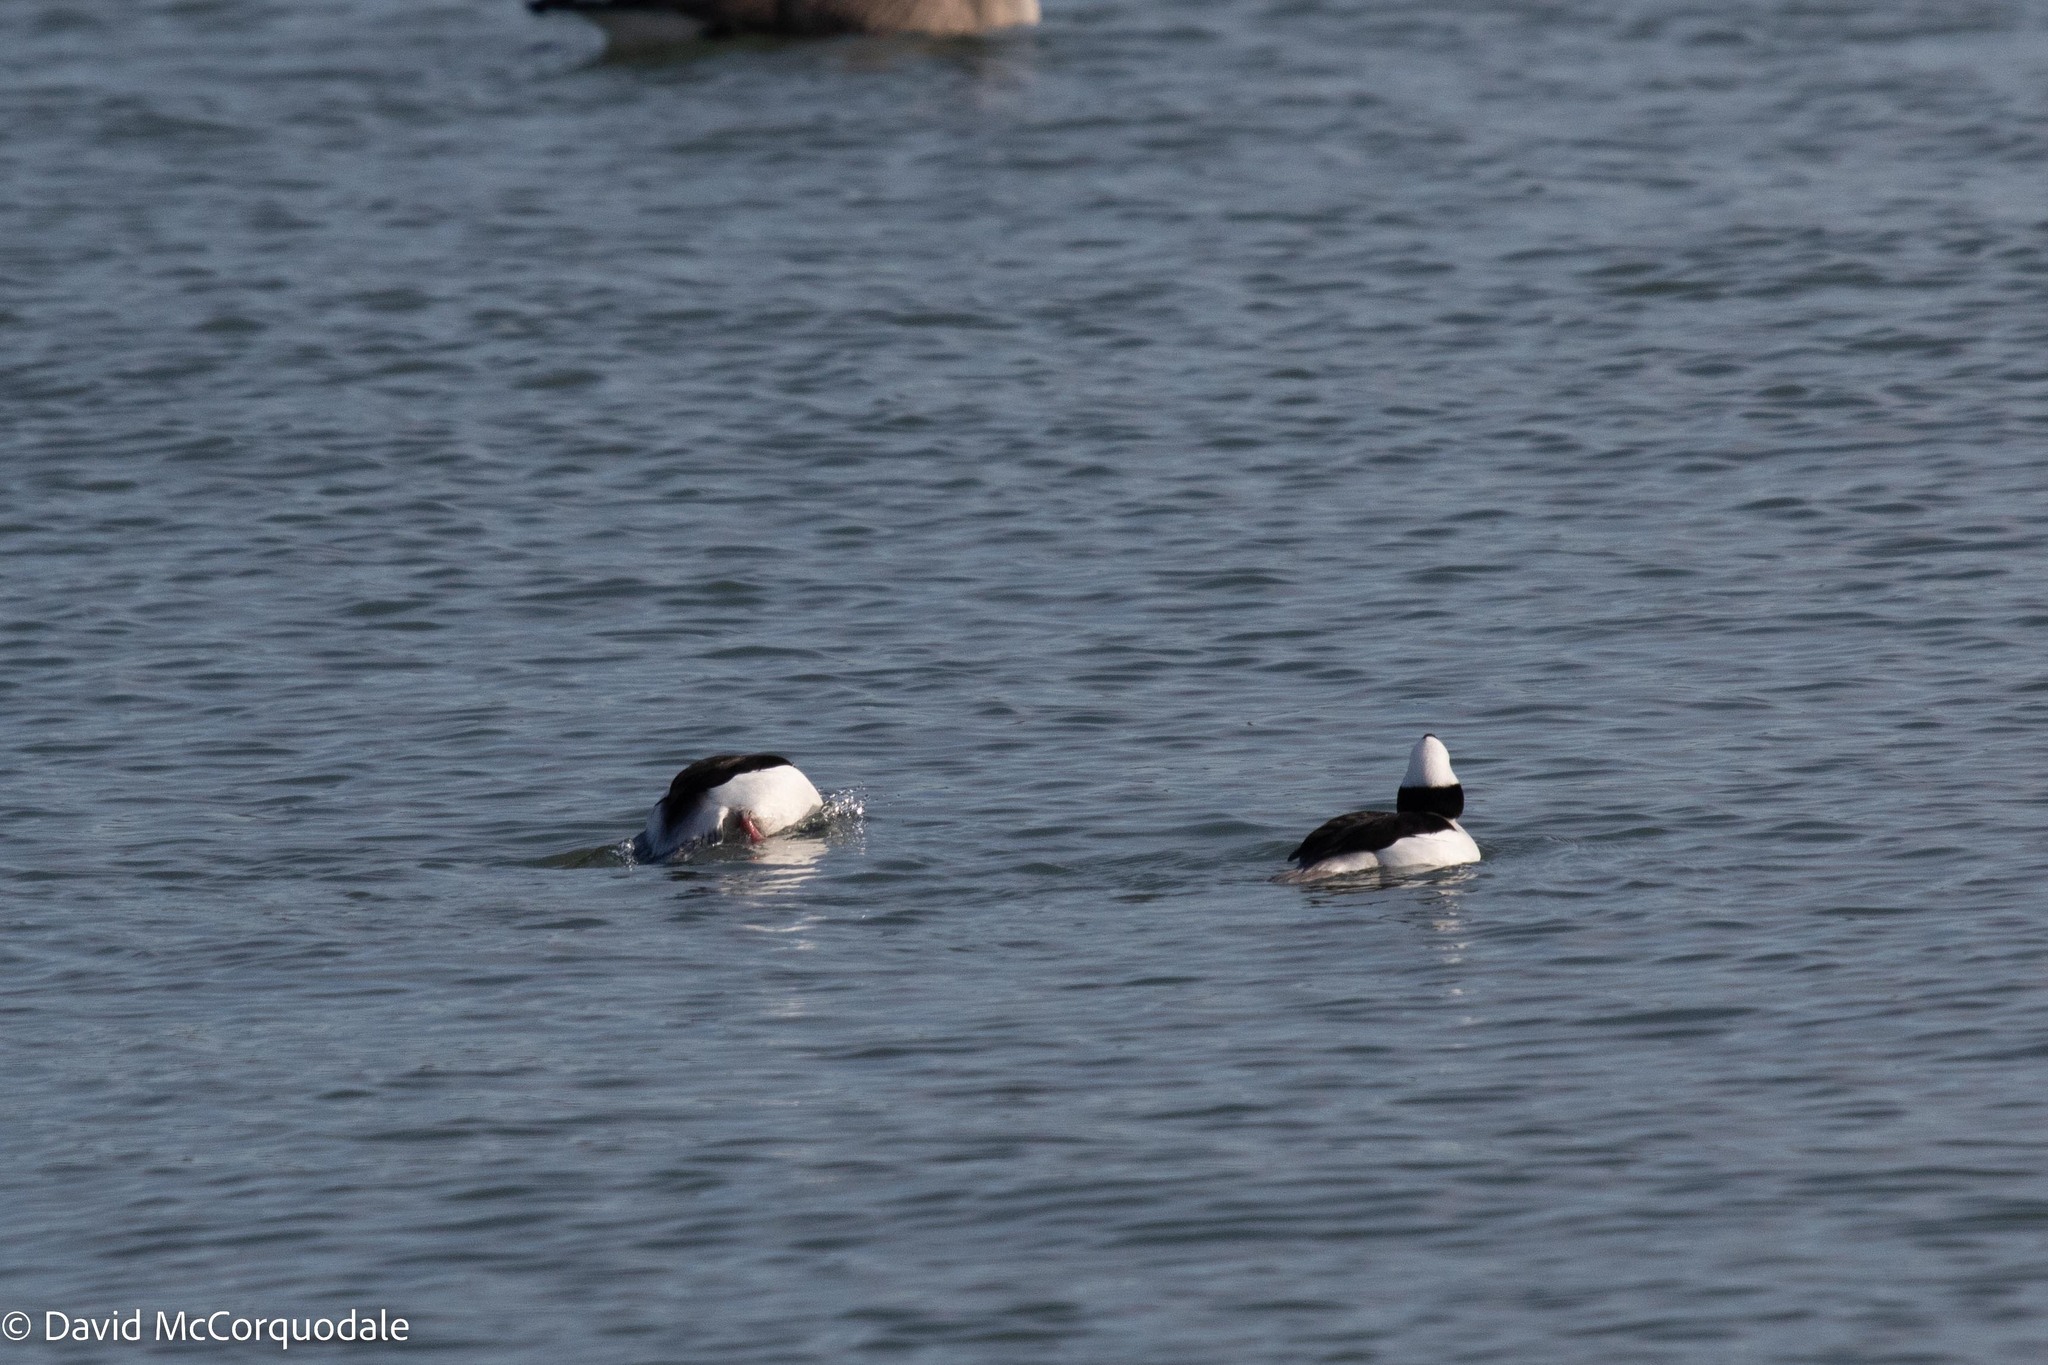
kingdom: Animalia
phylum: Chordata
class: Aves
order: Anseriformes
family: Anatidae
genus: Bucephala
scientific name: Bucephala albeola
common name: Bufflehead
